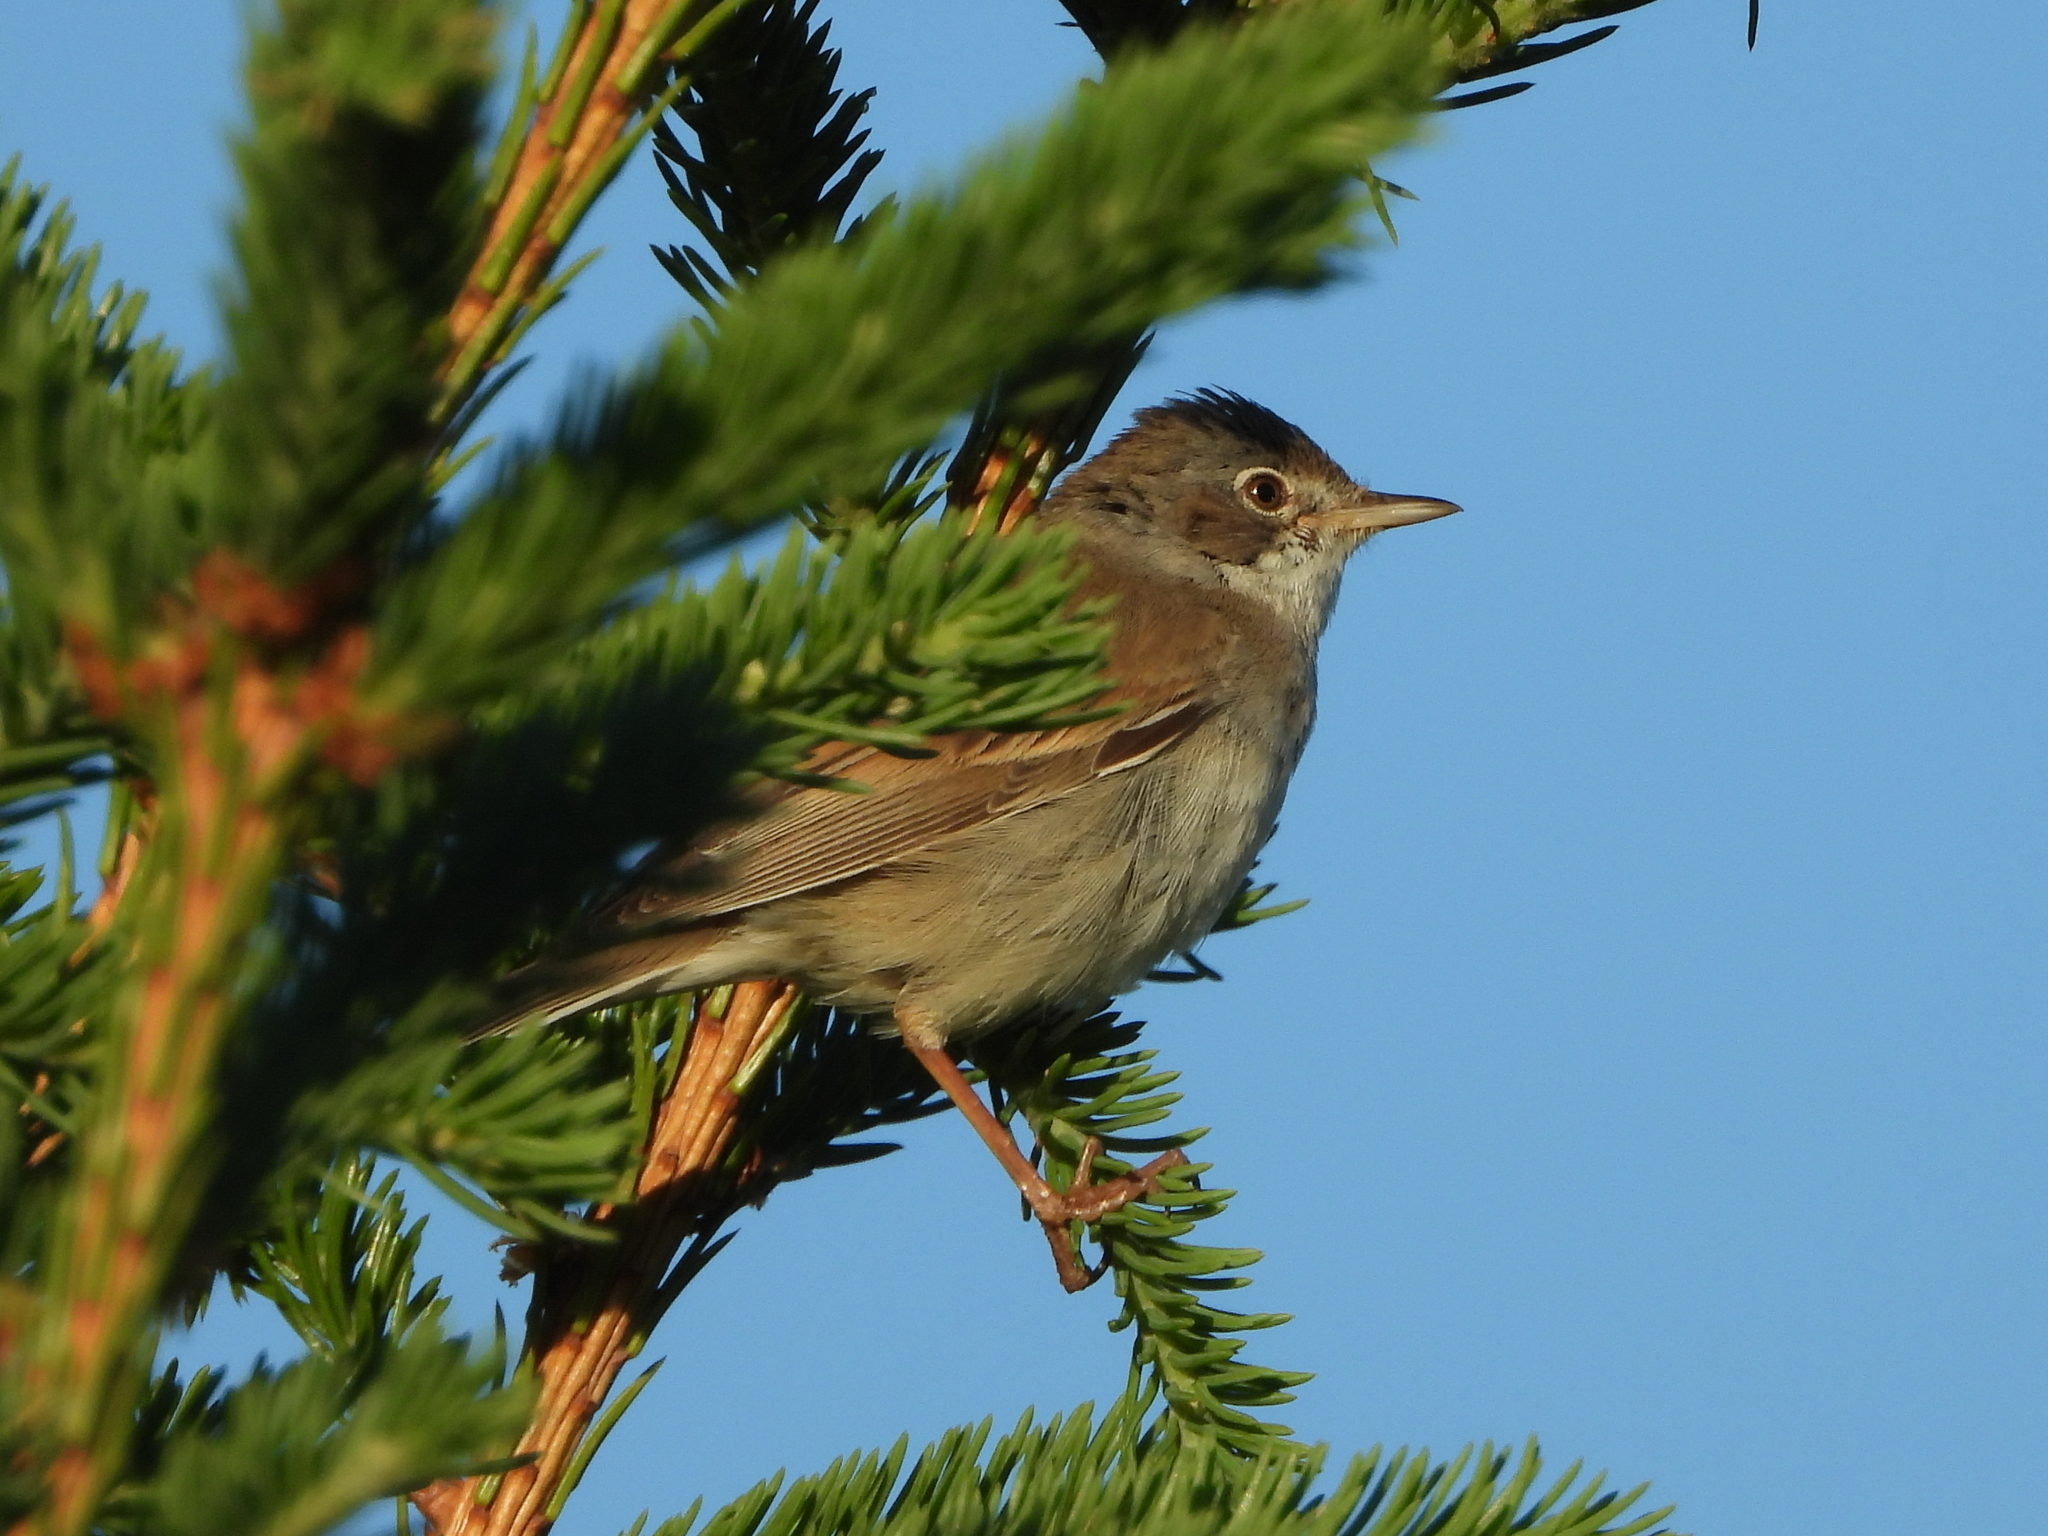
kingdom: Animalia
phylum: Chordata
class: Aves
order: Passeriformes
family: Sylviidae
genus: Sylvia
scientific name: Sylvia communis
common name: Common whitethroat
